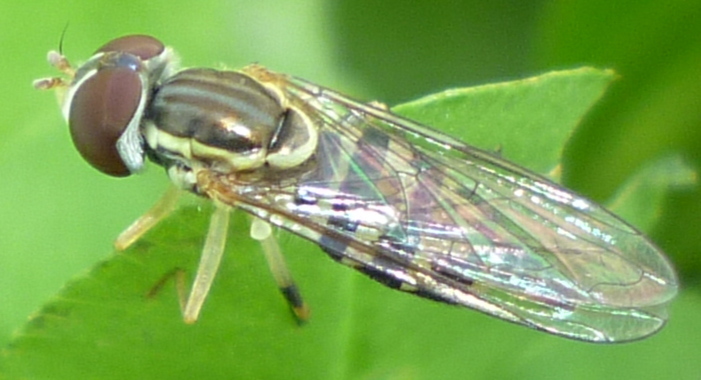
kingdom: Animalia
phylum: Arthropoda
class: Insecta
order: Diptera
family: Syrphidae
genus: Toxomerus
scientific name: Toxomerus geminatus
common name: Eastern calligrapher
